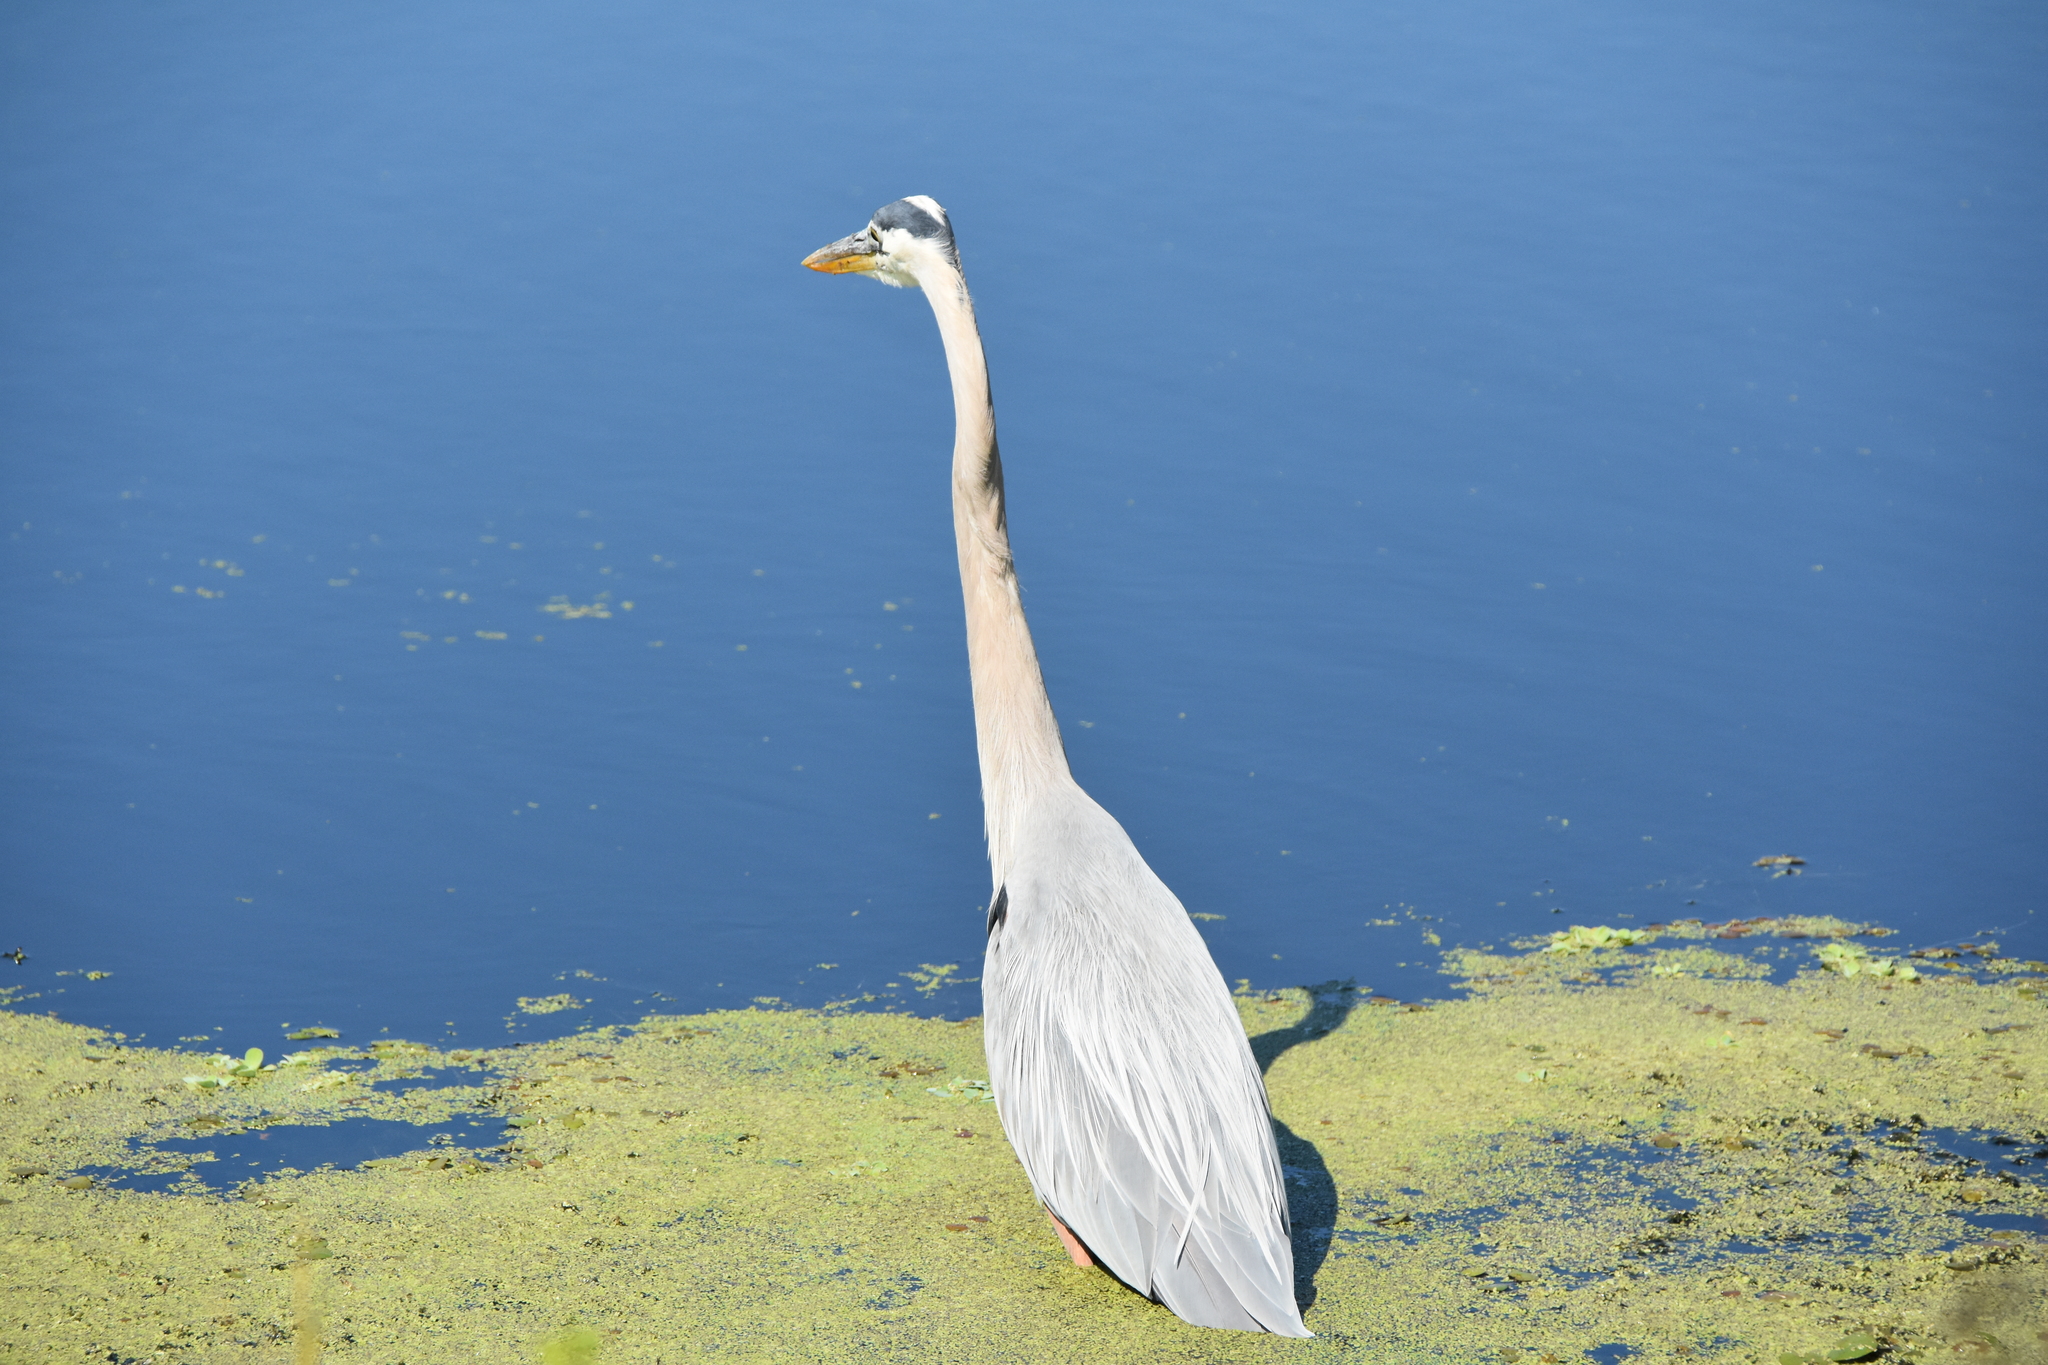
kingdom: Animalia
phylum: Chordata
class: Aves
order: Pelecaniformes
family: Ardeidae
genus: Ardea
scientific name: Ardea herodias
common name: Great blue heron
